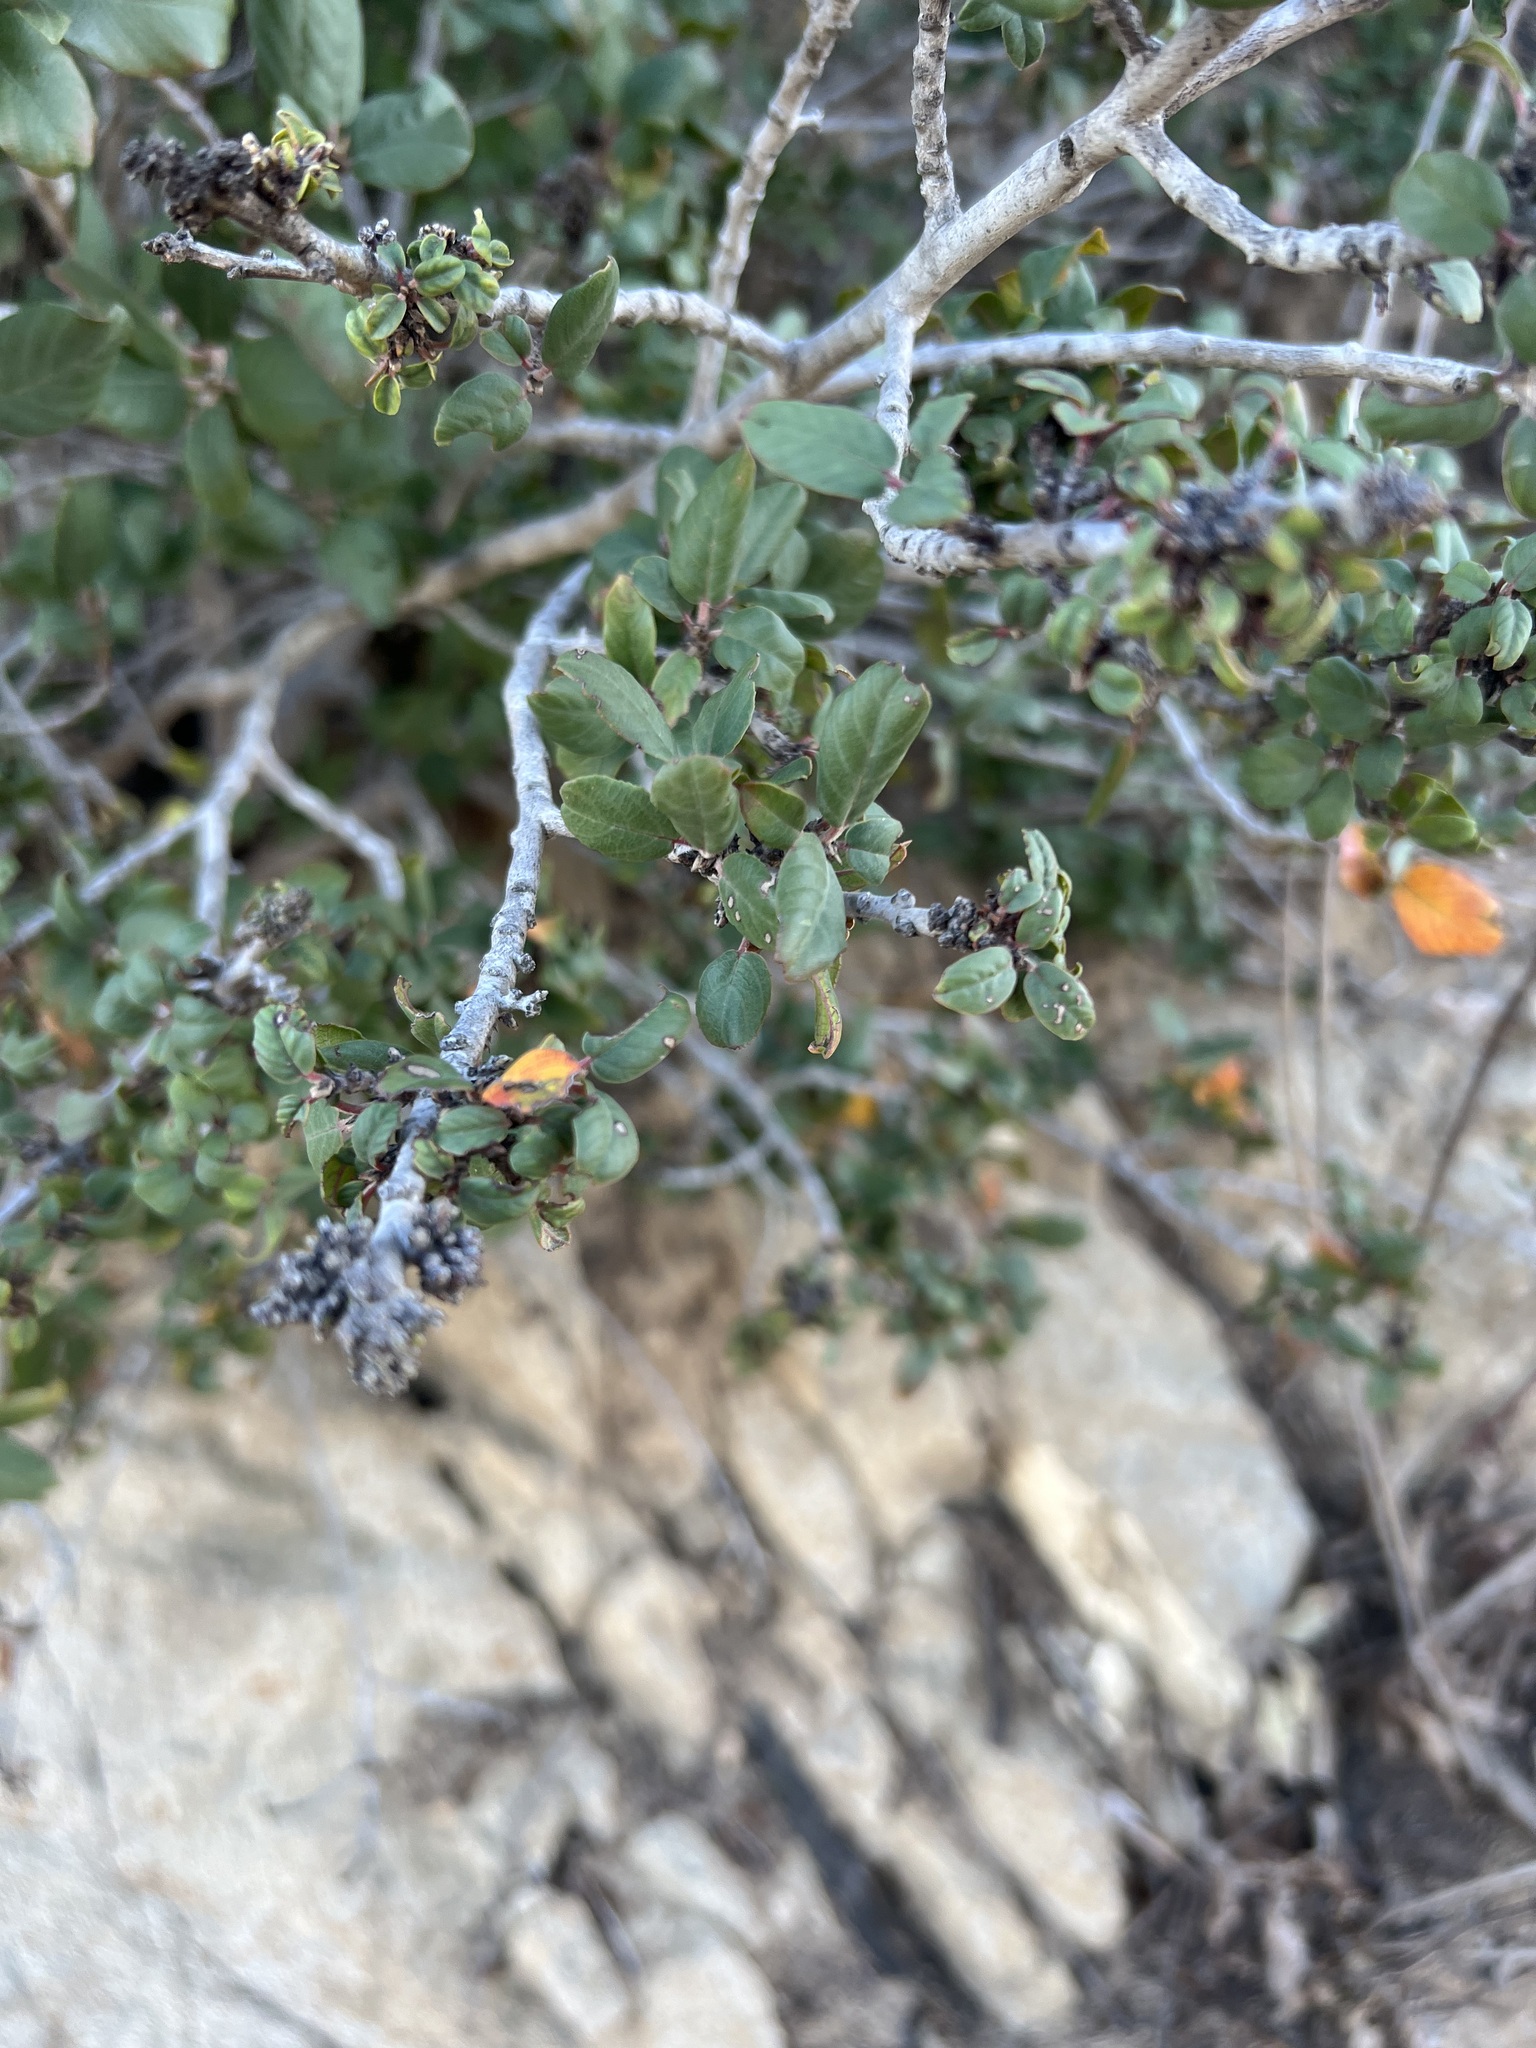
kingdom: Plantae
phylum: Tracheophyta
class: Magnoliopsida
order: Rosales
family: Rhamnaceae
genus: Frangula
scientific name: Frangula californica
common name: California buckthorn
